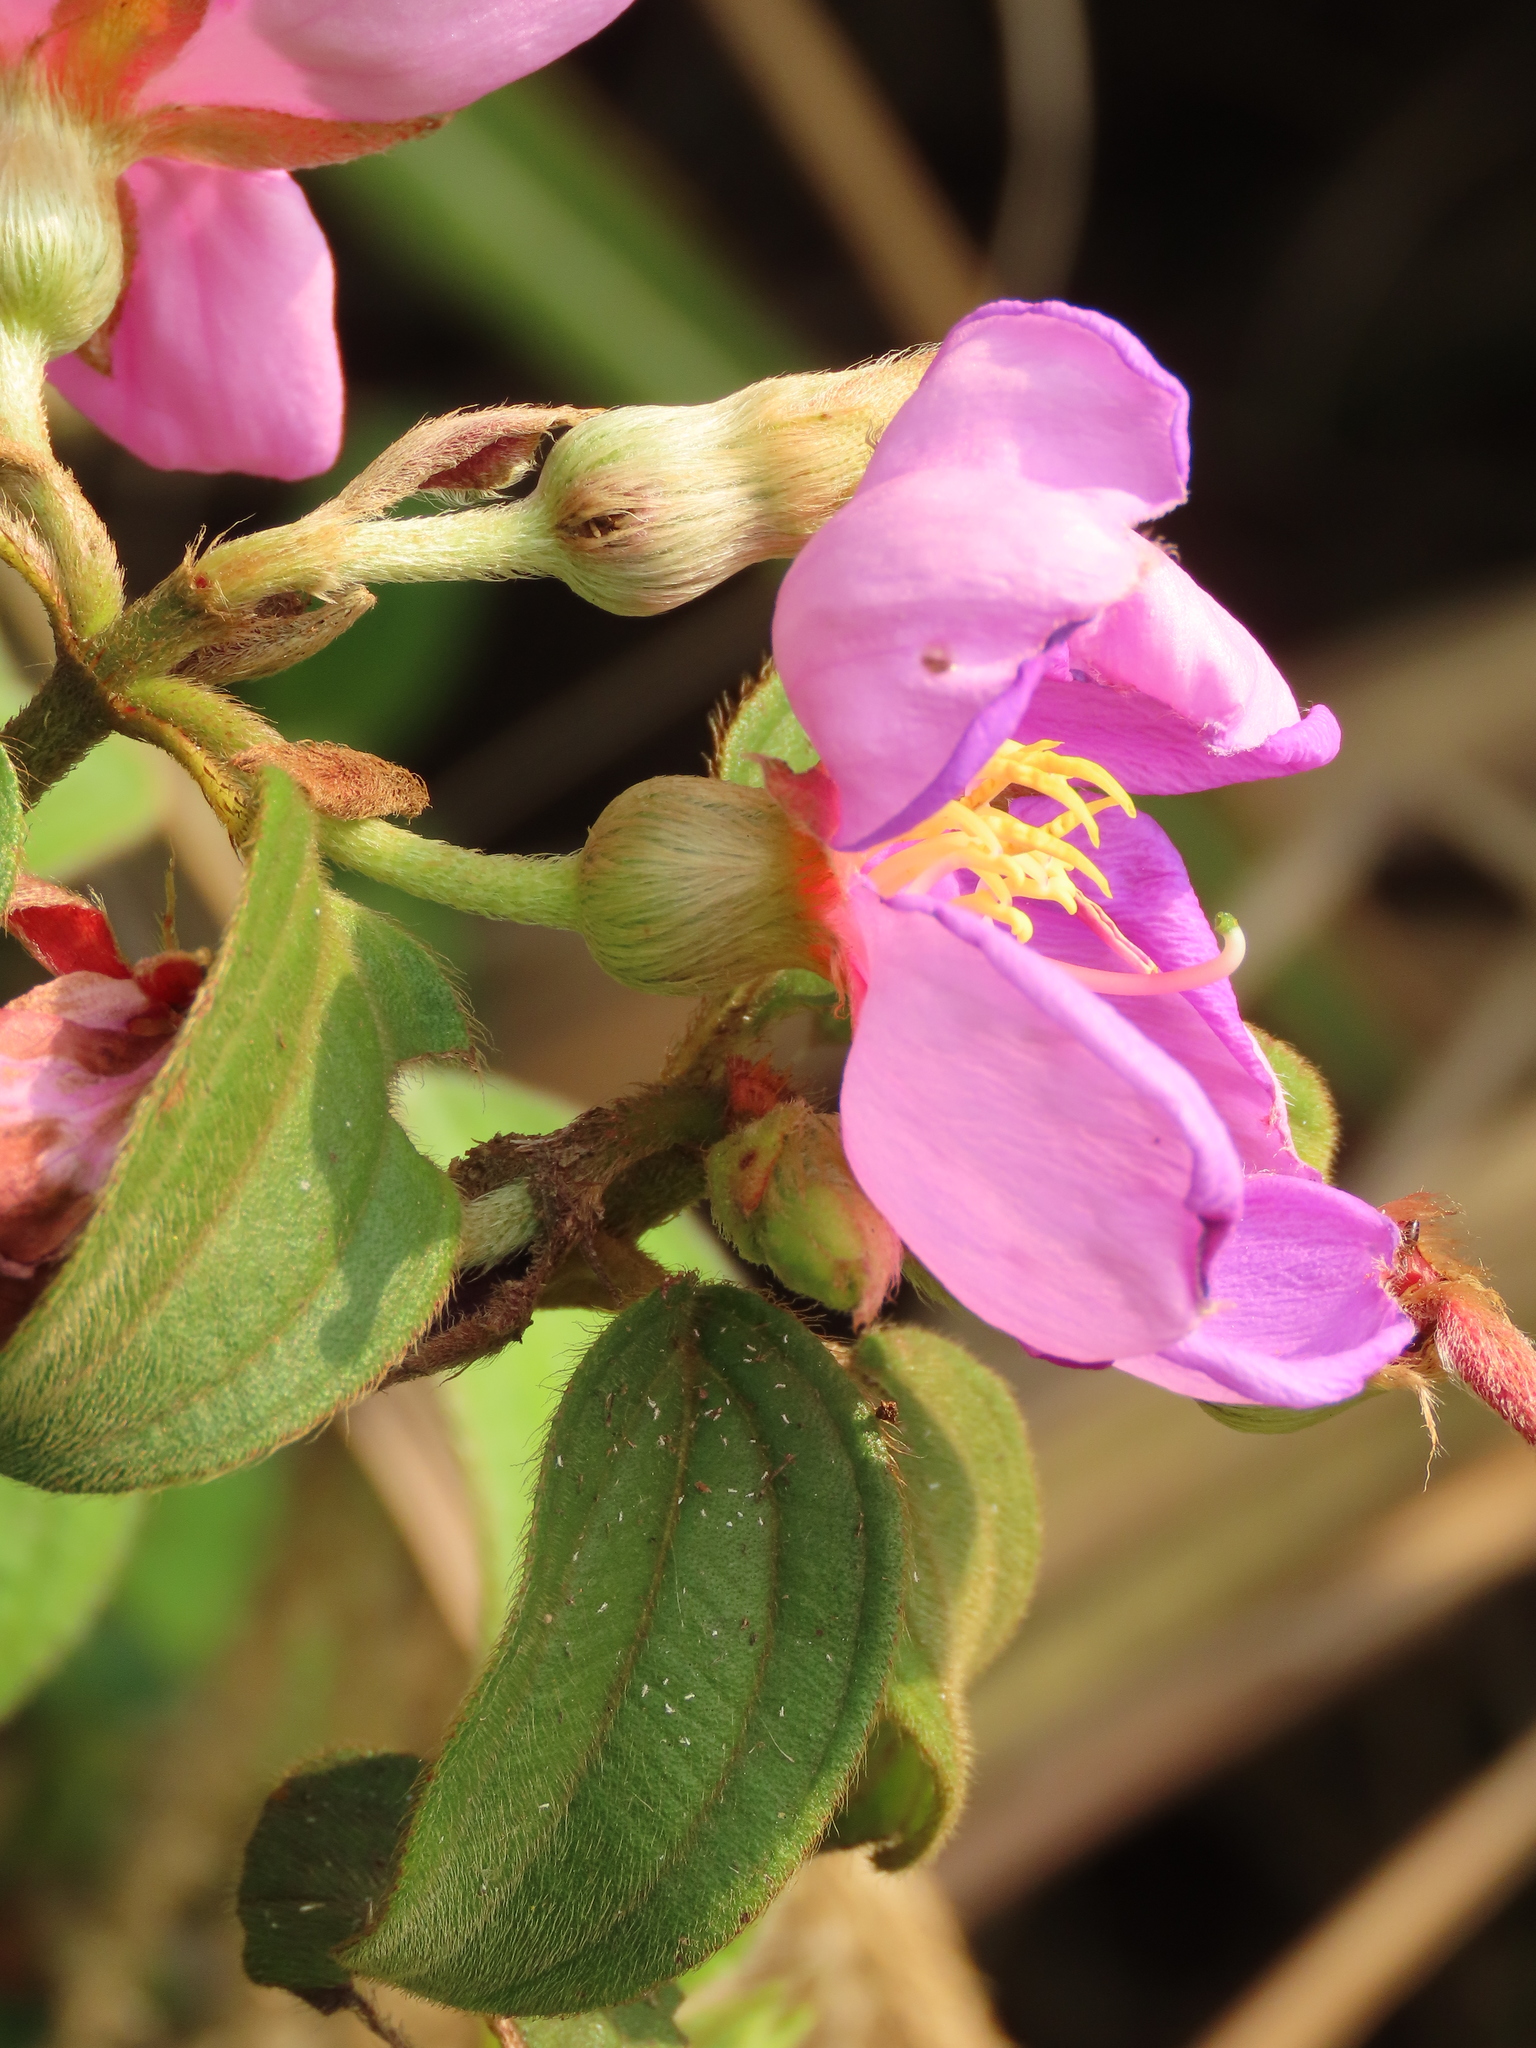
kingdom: Plantae
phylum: Tracheophyta
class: Magnoliopsida
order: Myrtales
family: Melastomataceae
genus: Melastoma
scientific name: Melastoma malabathricum
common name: Indian-rhododendron
